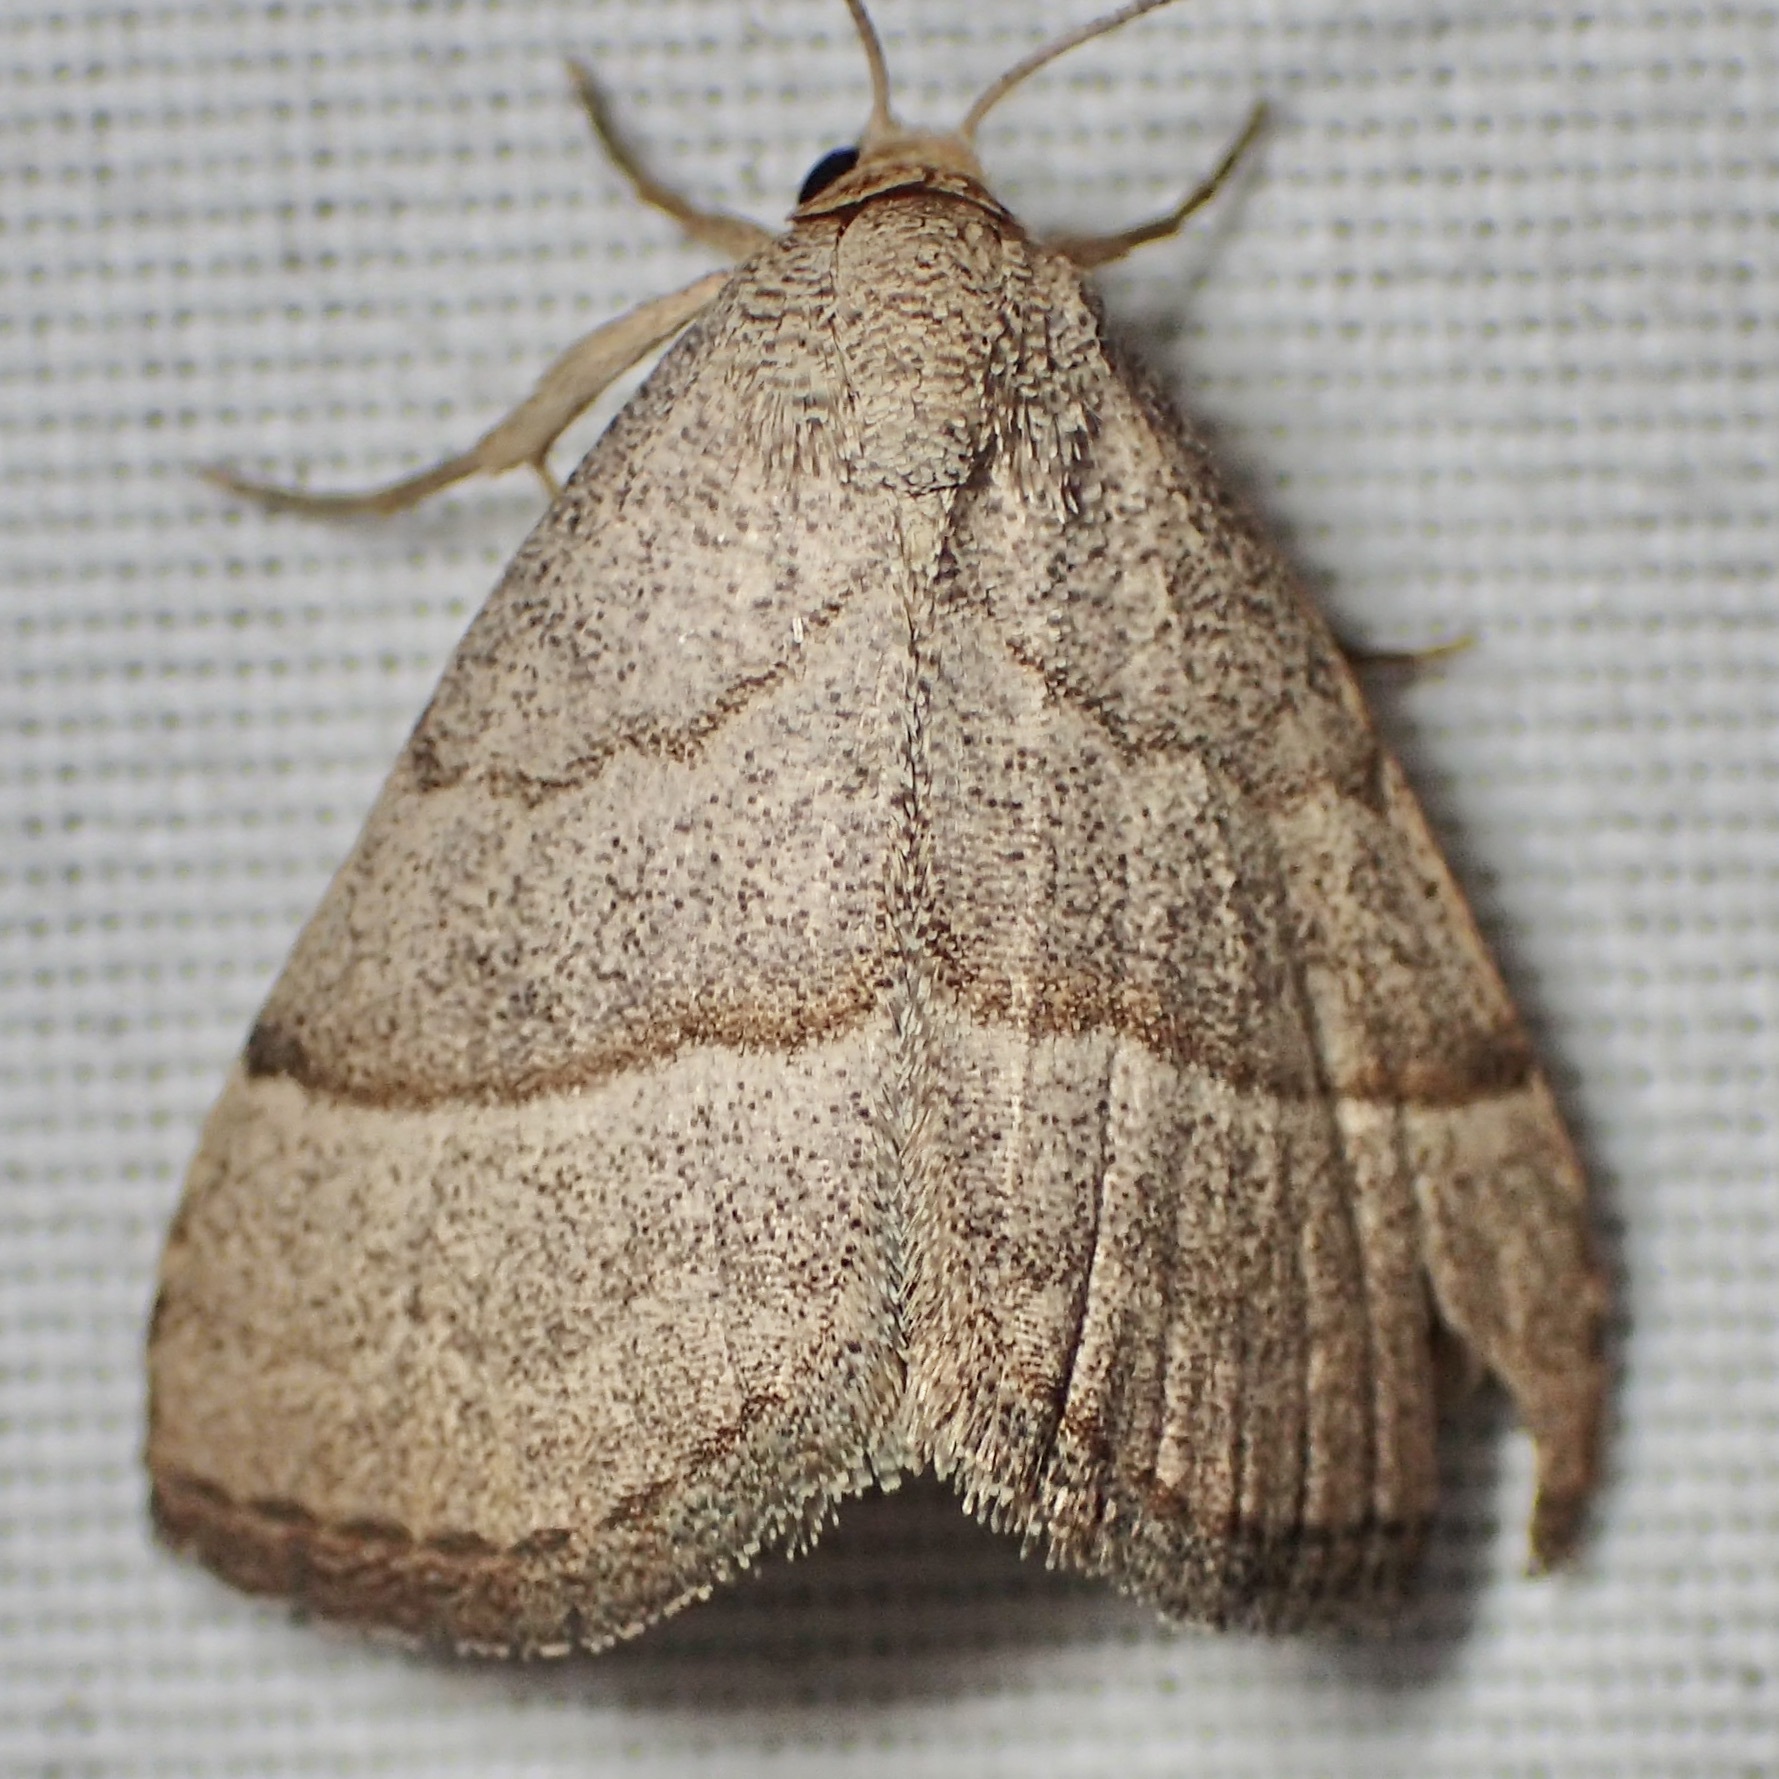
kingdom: Animalia
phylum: Arthropoda
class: Insecta
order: Lepidoptera
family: Erebidae
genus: Zelicodes
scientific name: Zelicodes linearis
